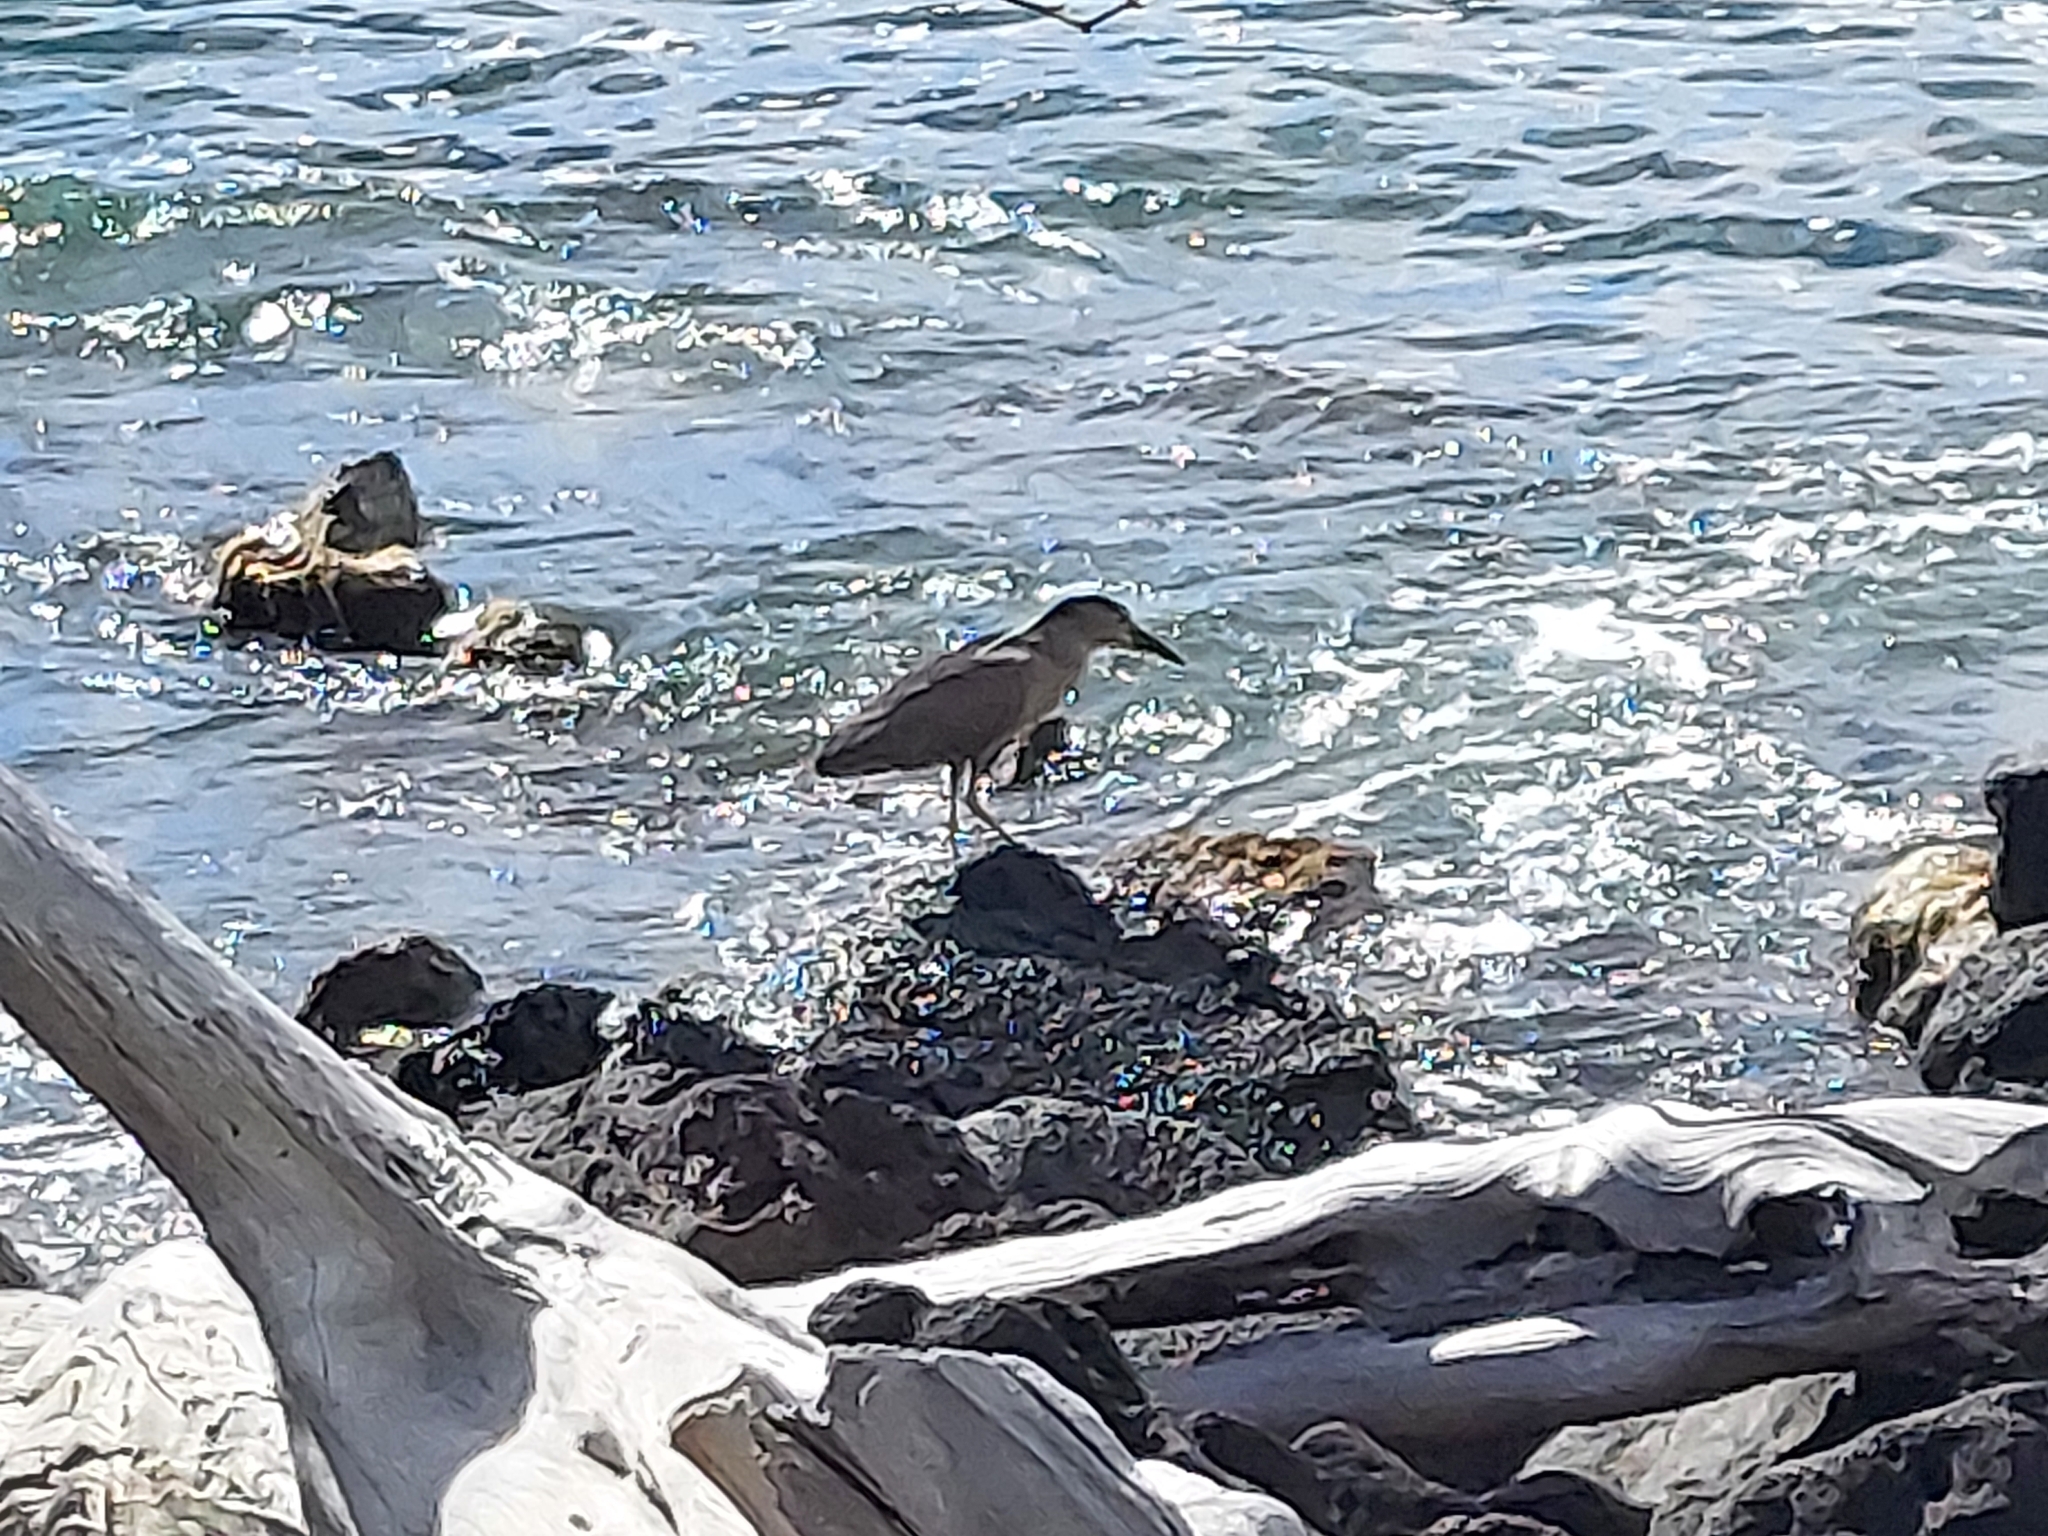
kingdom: Animalia
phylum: Chordata
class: Aves
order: Pelecaniformes
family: Ardeidae
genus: Nycticorax
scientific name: Nycticorax nycticorax
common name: Black-crowned night heron
